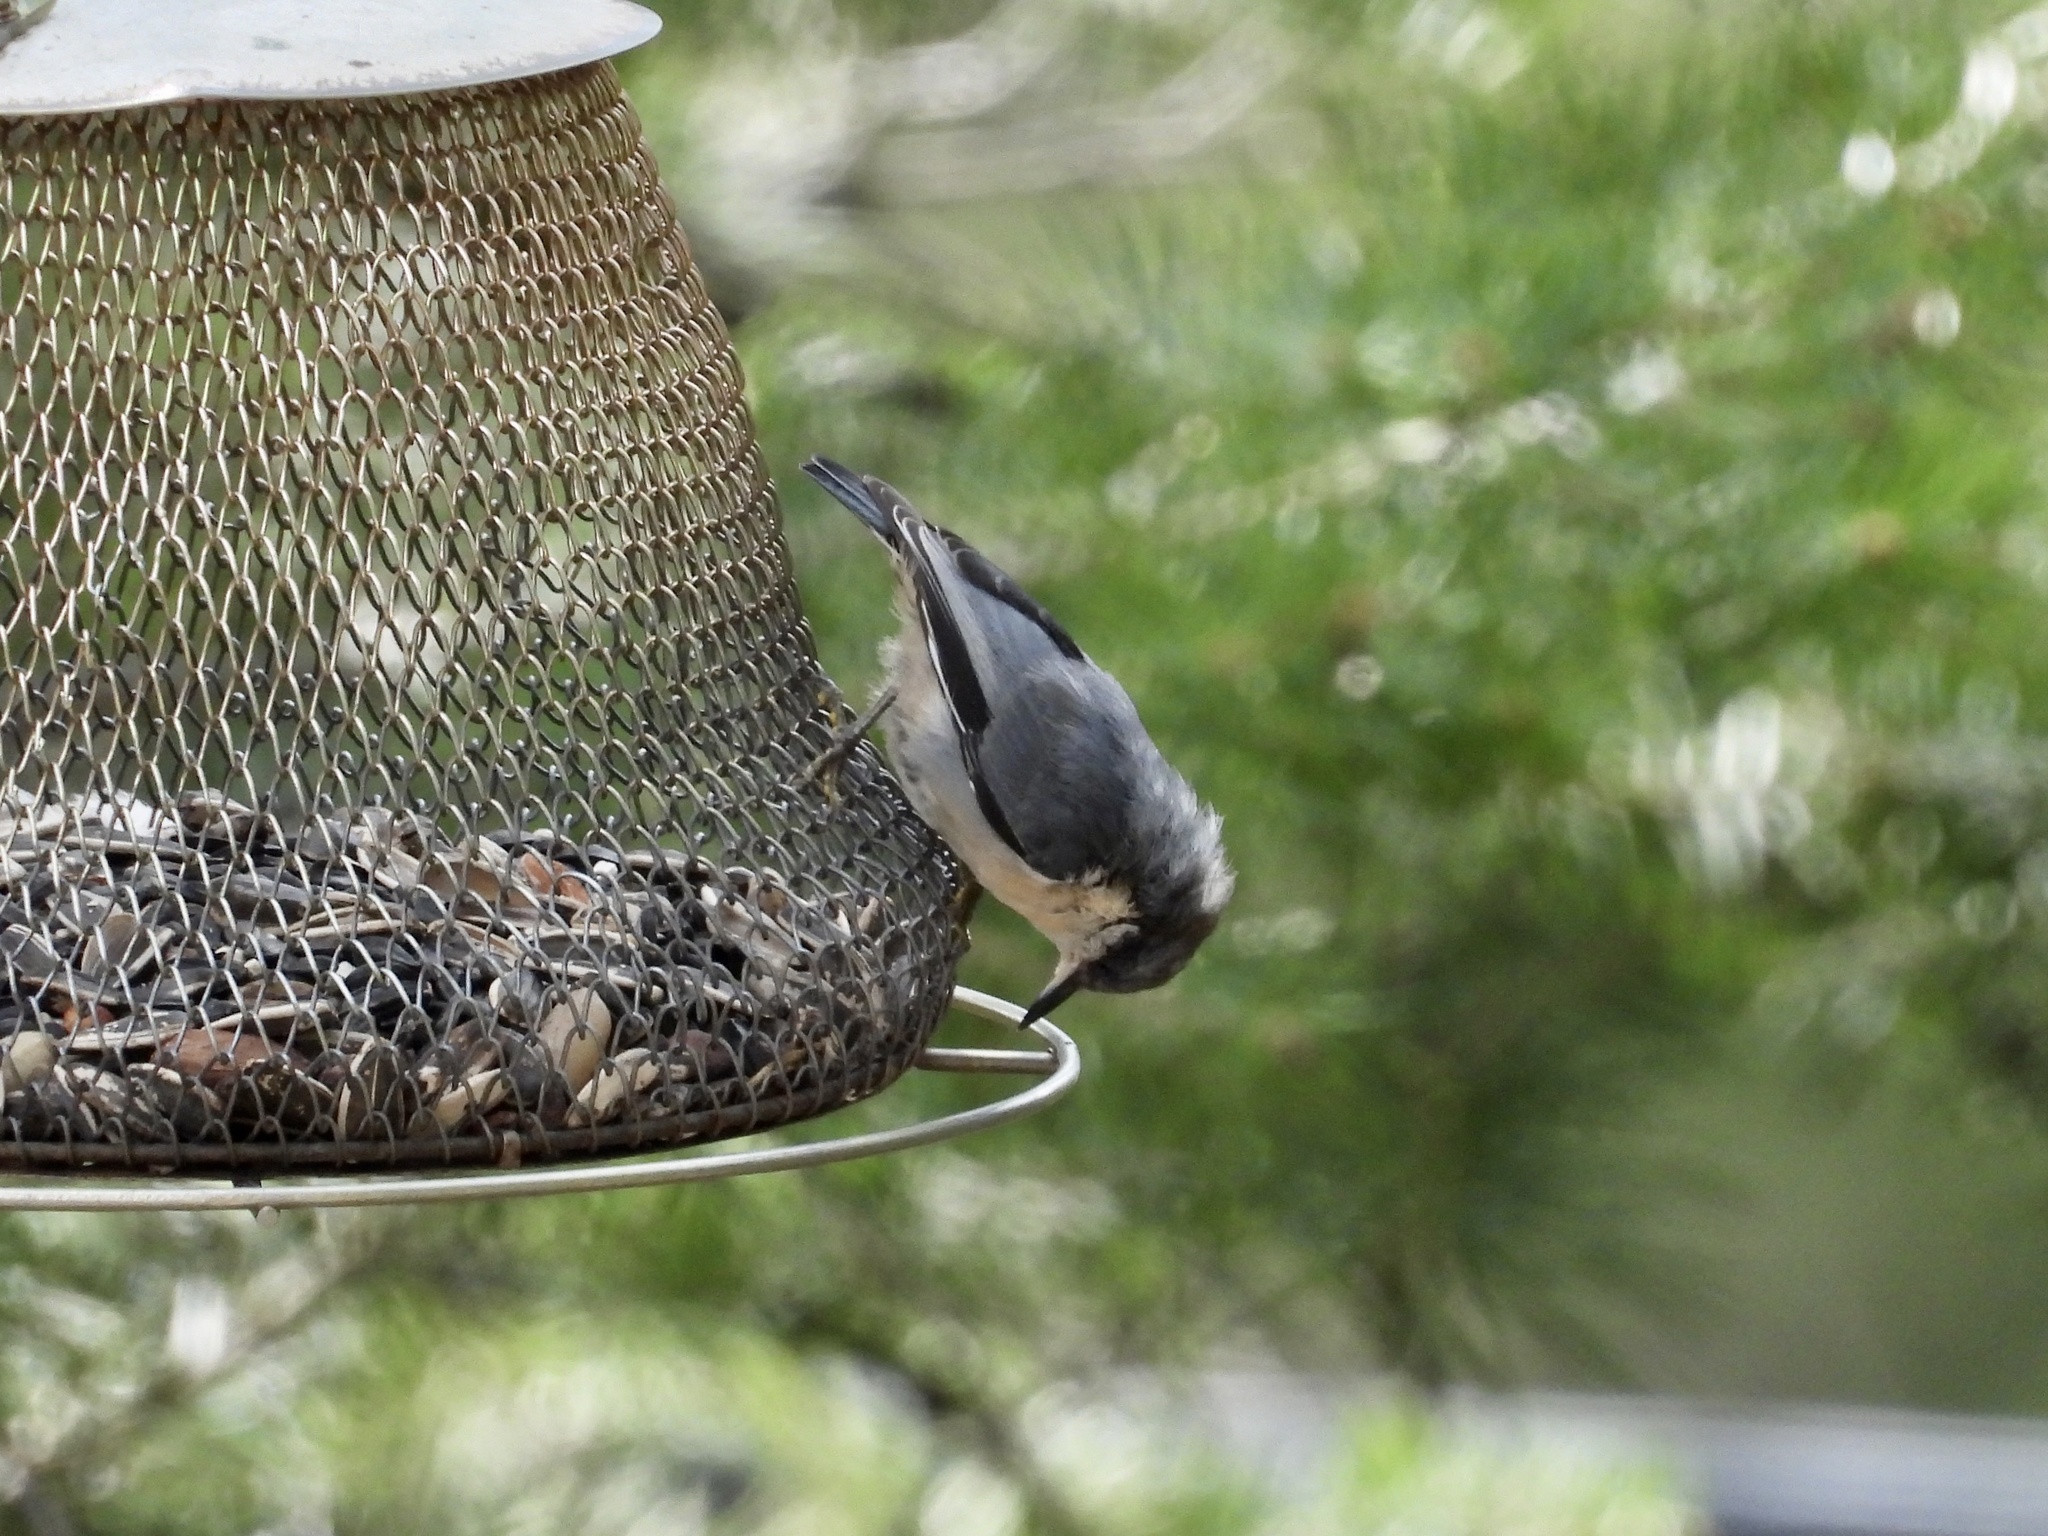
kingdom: Animalia
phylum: Chordata
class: Aves
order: Passeriformes
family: Sittidae
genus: Sitta
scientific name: Sitta pygmaea
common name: Pygmy nuthatch
